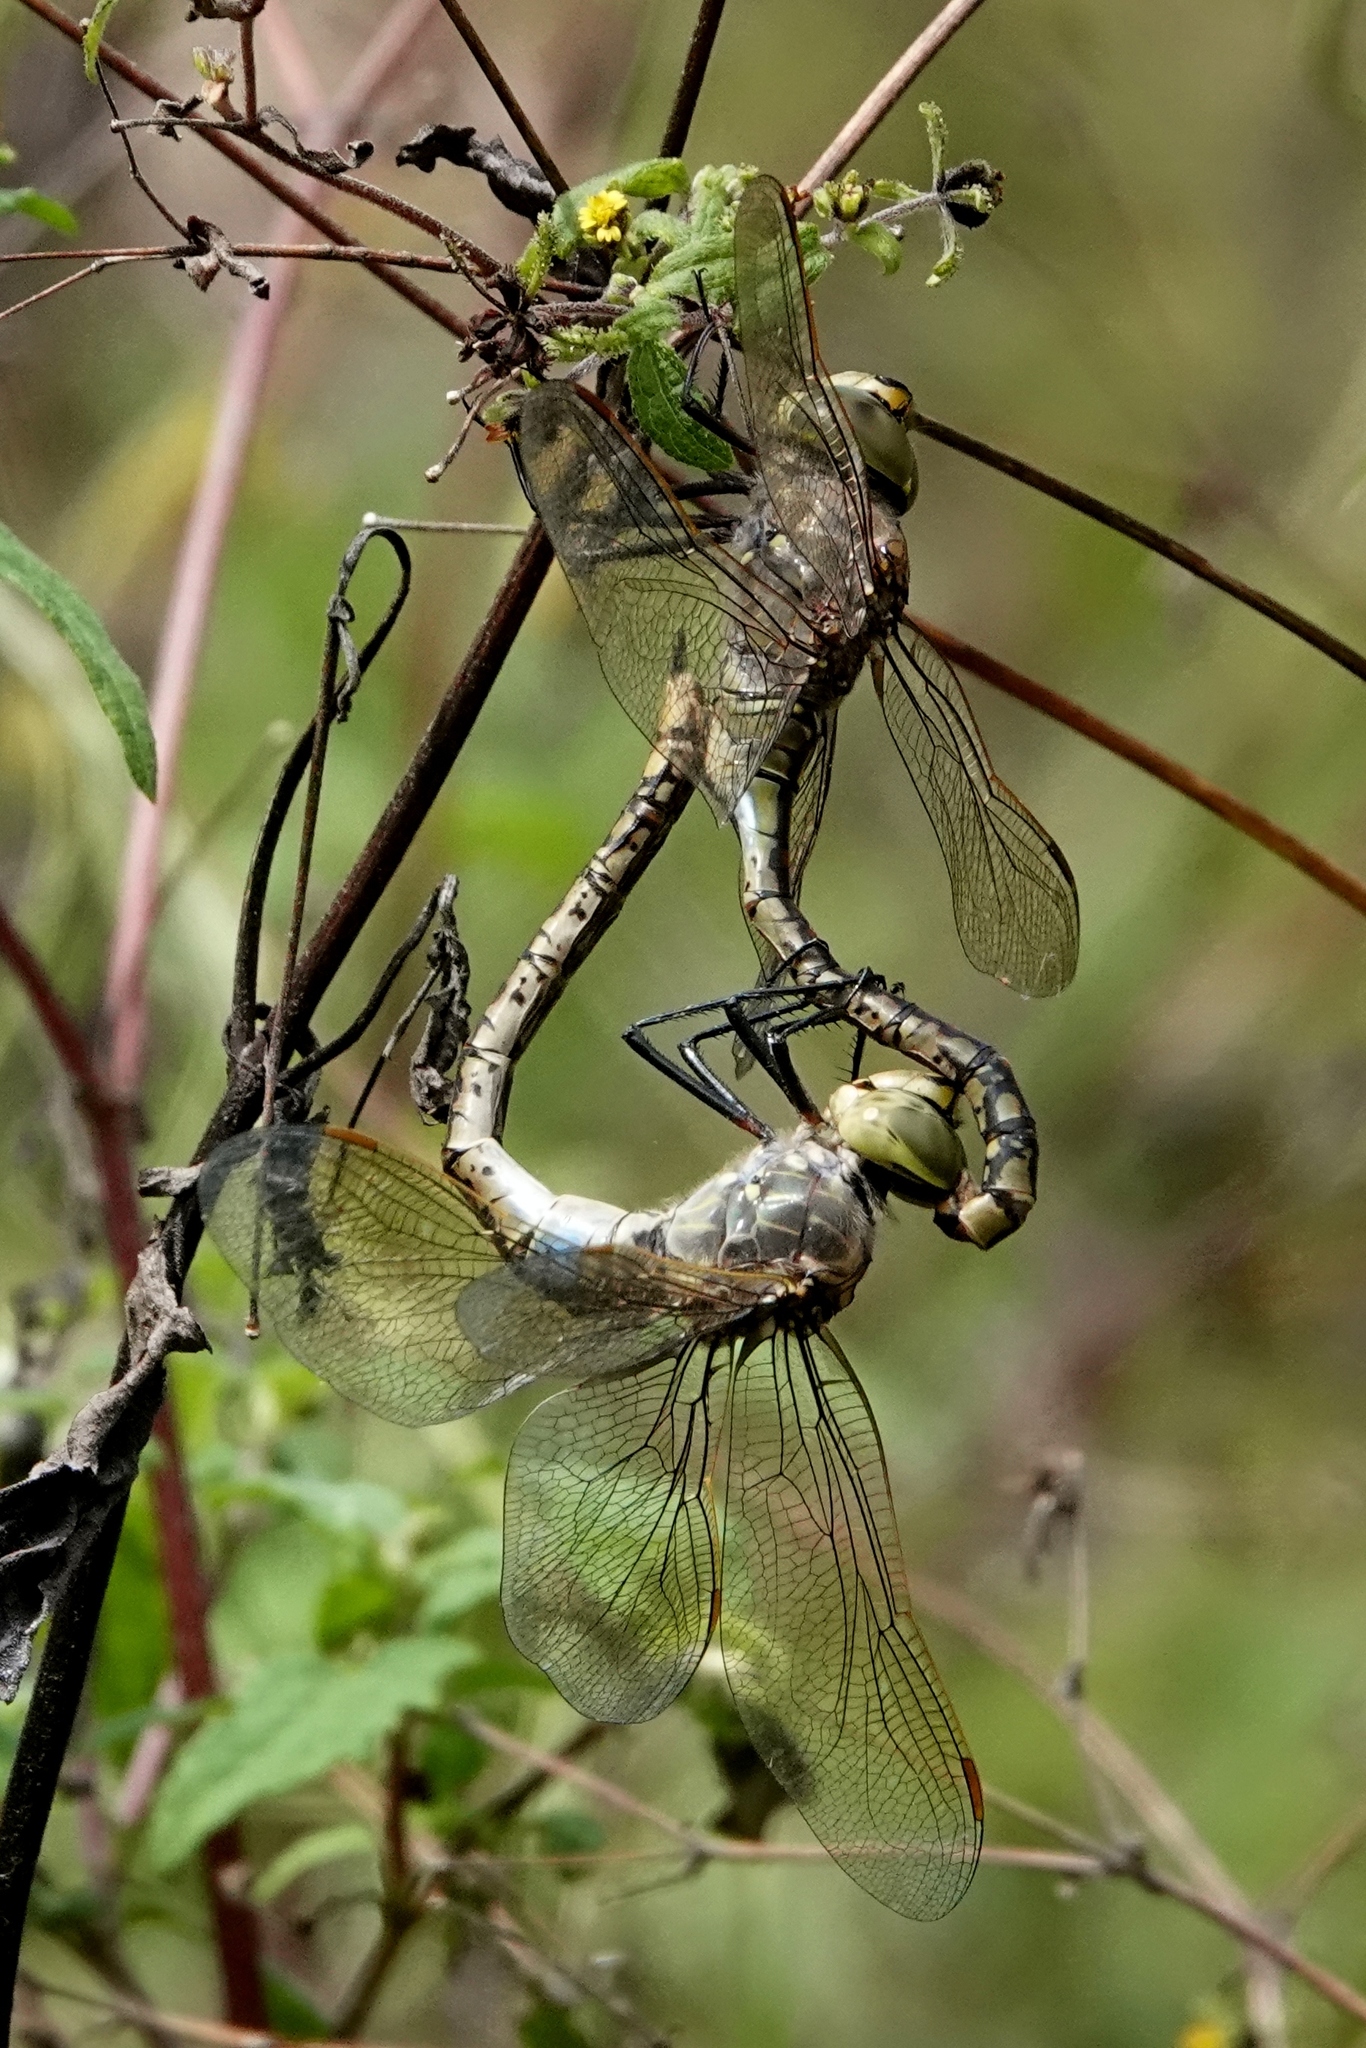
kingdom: Animalia
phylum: Arthropoda
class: Insecta
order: Odonata
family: Aeshnidae
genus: Anax
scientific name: Anax papuensis
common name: Australian emperor
